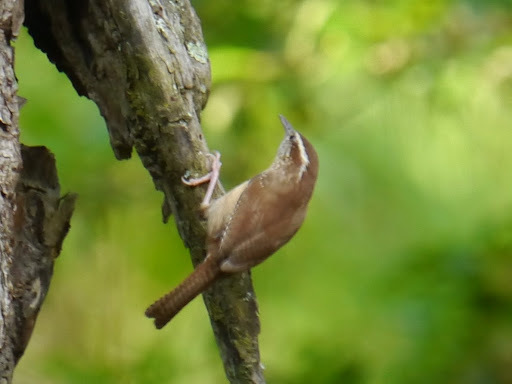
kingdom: Animalia
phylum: Chordata
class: Aves
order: Passeriformes
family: Troglodytidae
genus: Thryothorus
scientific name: Thryothorus ludovicianus
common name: Carolina wren
